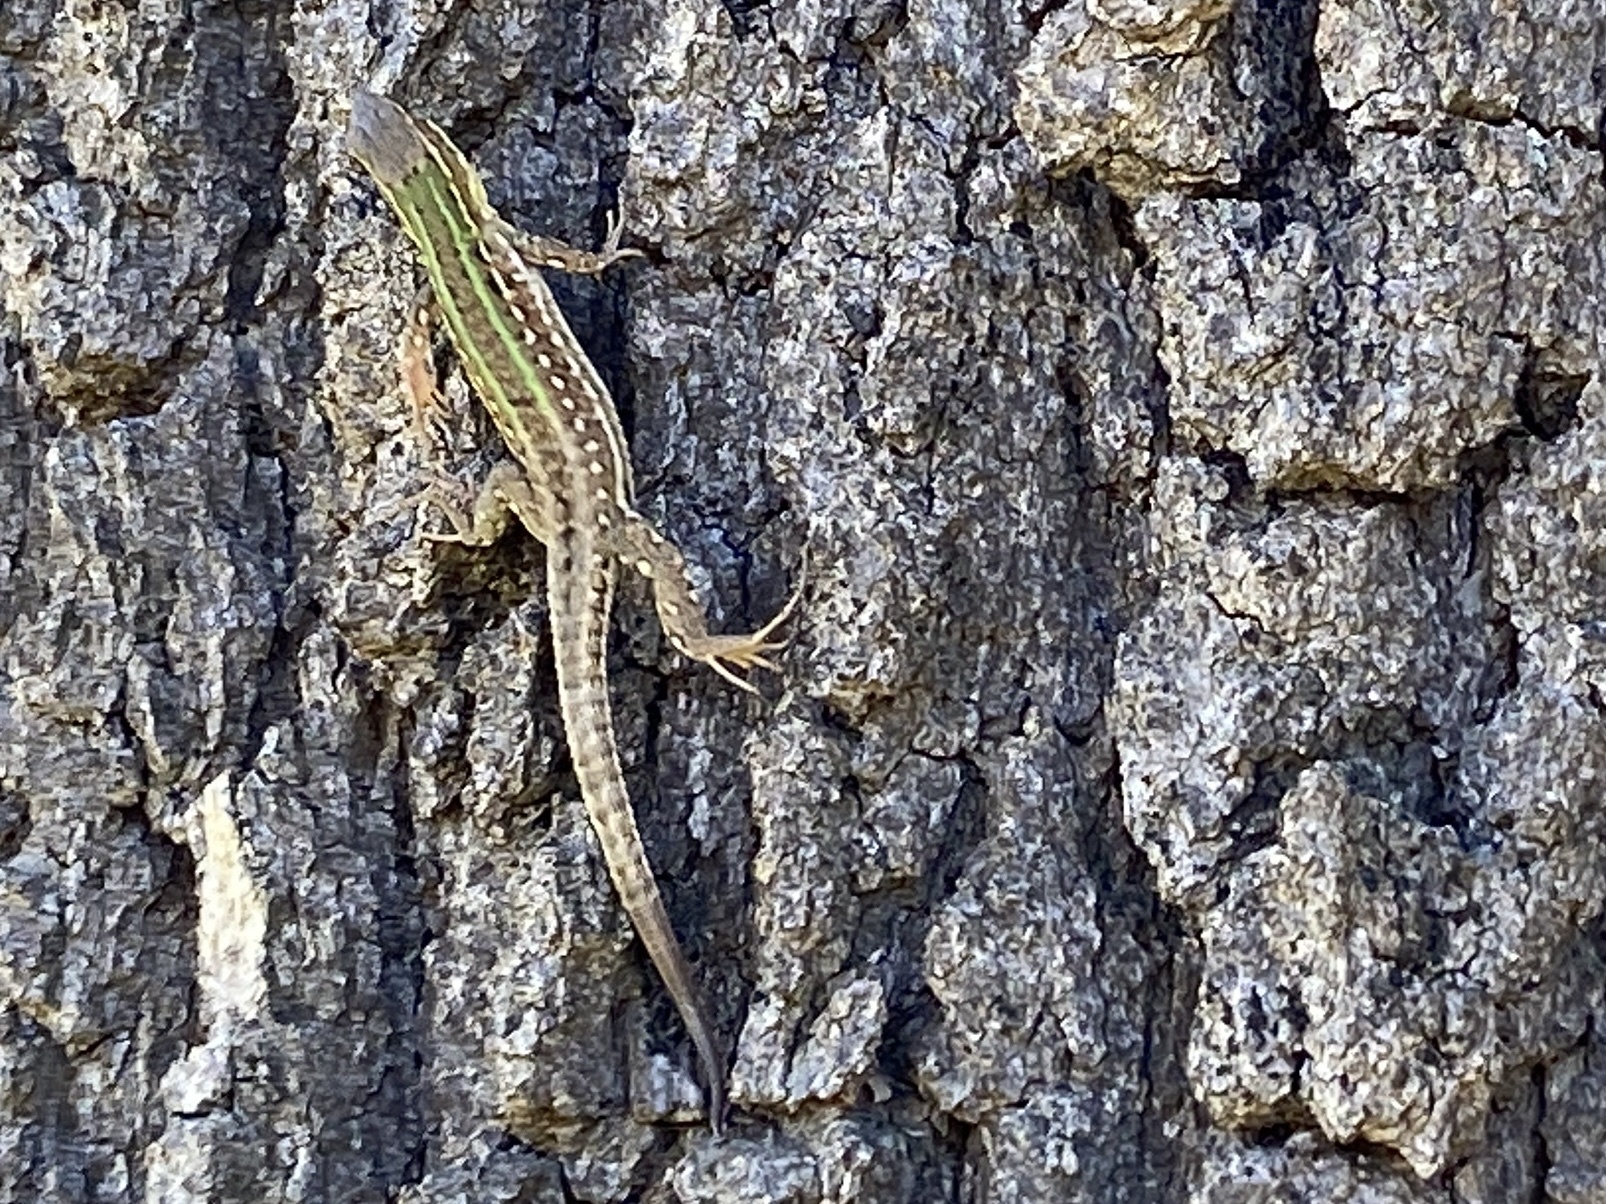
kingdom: Animalia
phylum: Chordata
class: Squamata
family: Lacertidae
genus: Podarcis
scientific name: Podarcis siculus
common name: Italian wall lizard
